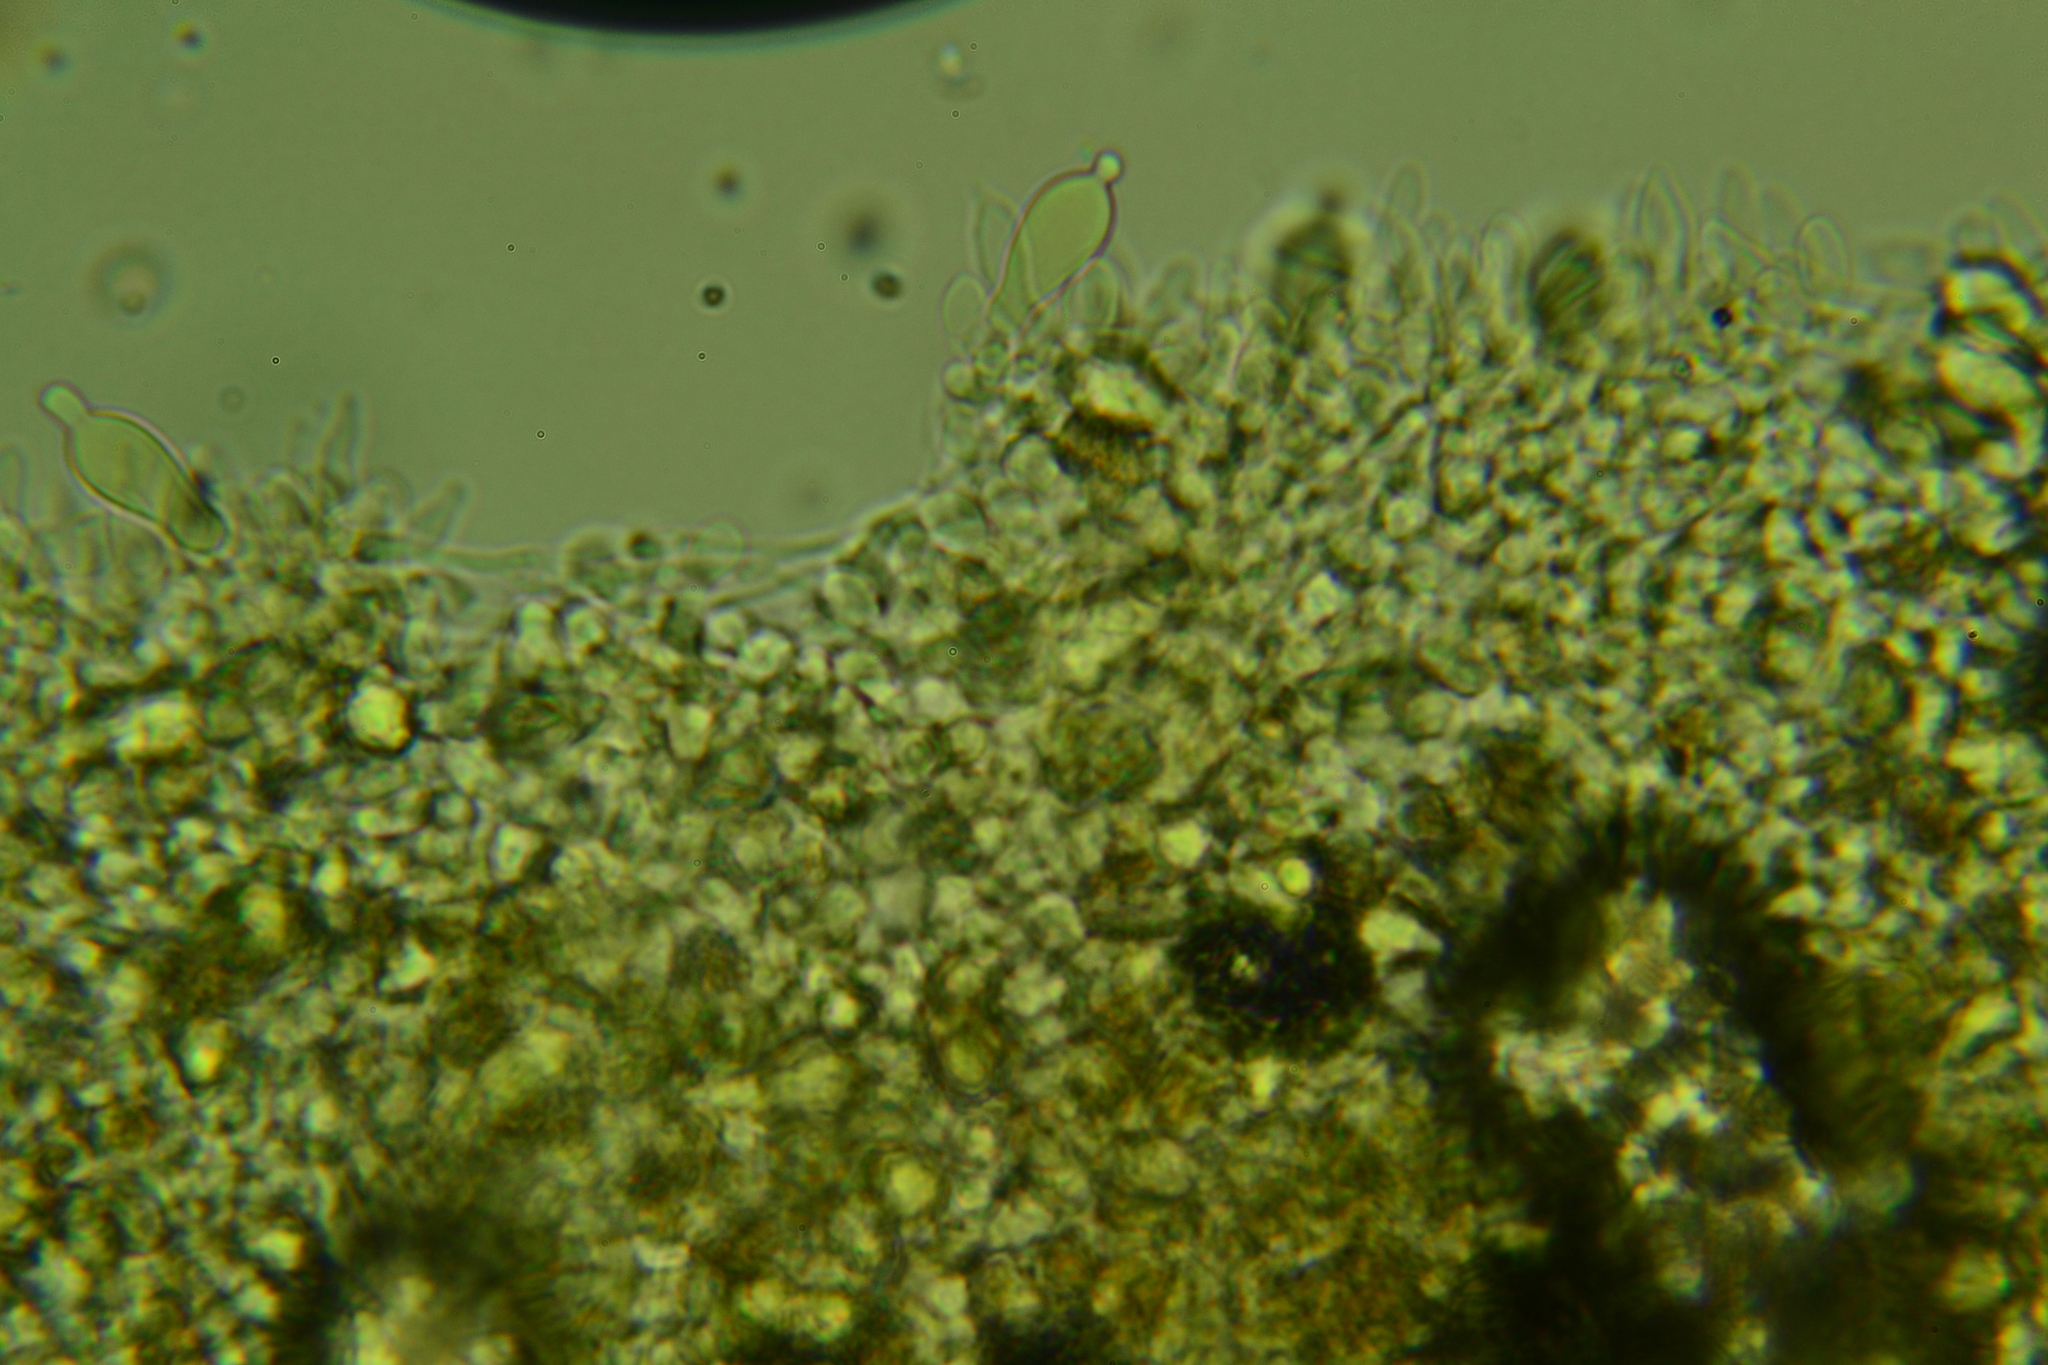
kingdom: Fungi
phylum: Basidiomycota
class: Agaricomycetes
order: Agaricales
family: Strophariaceae
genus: Deconica
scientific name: Deconica cokeriana
